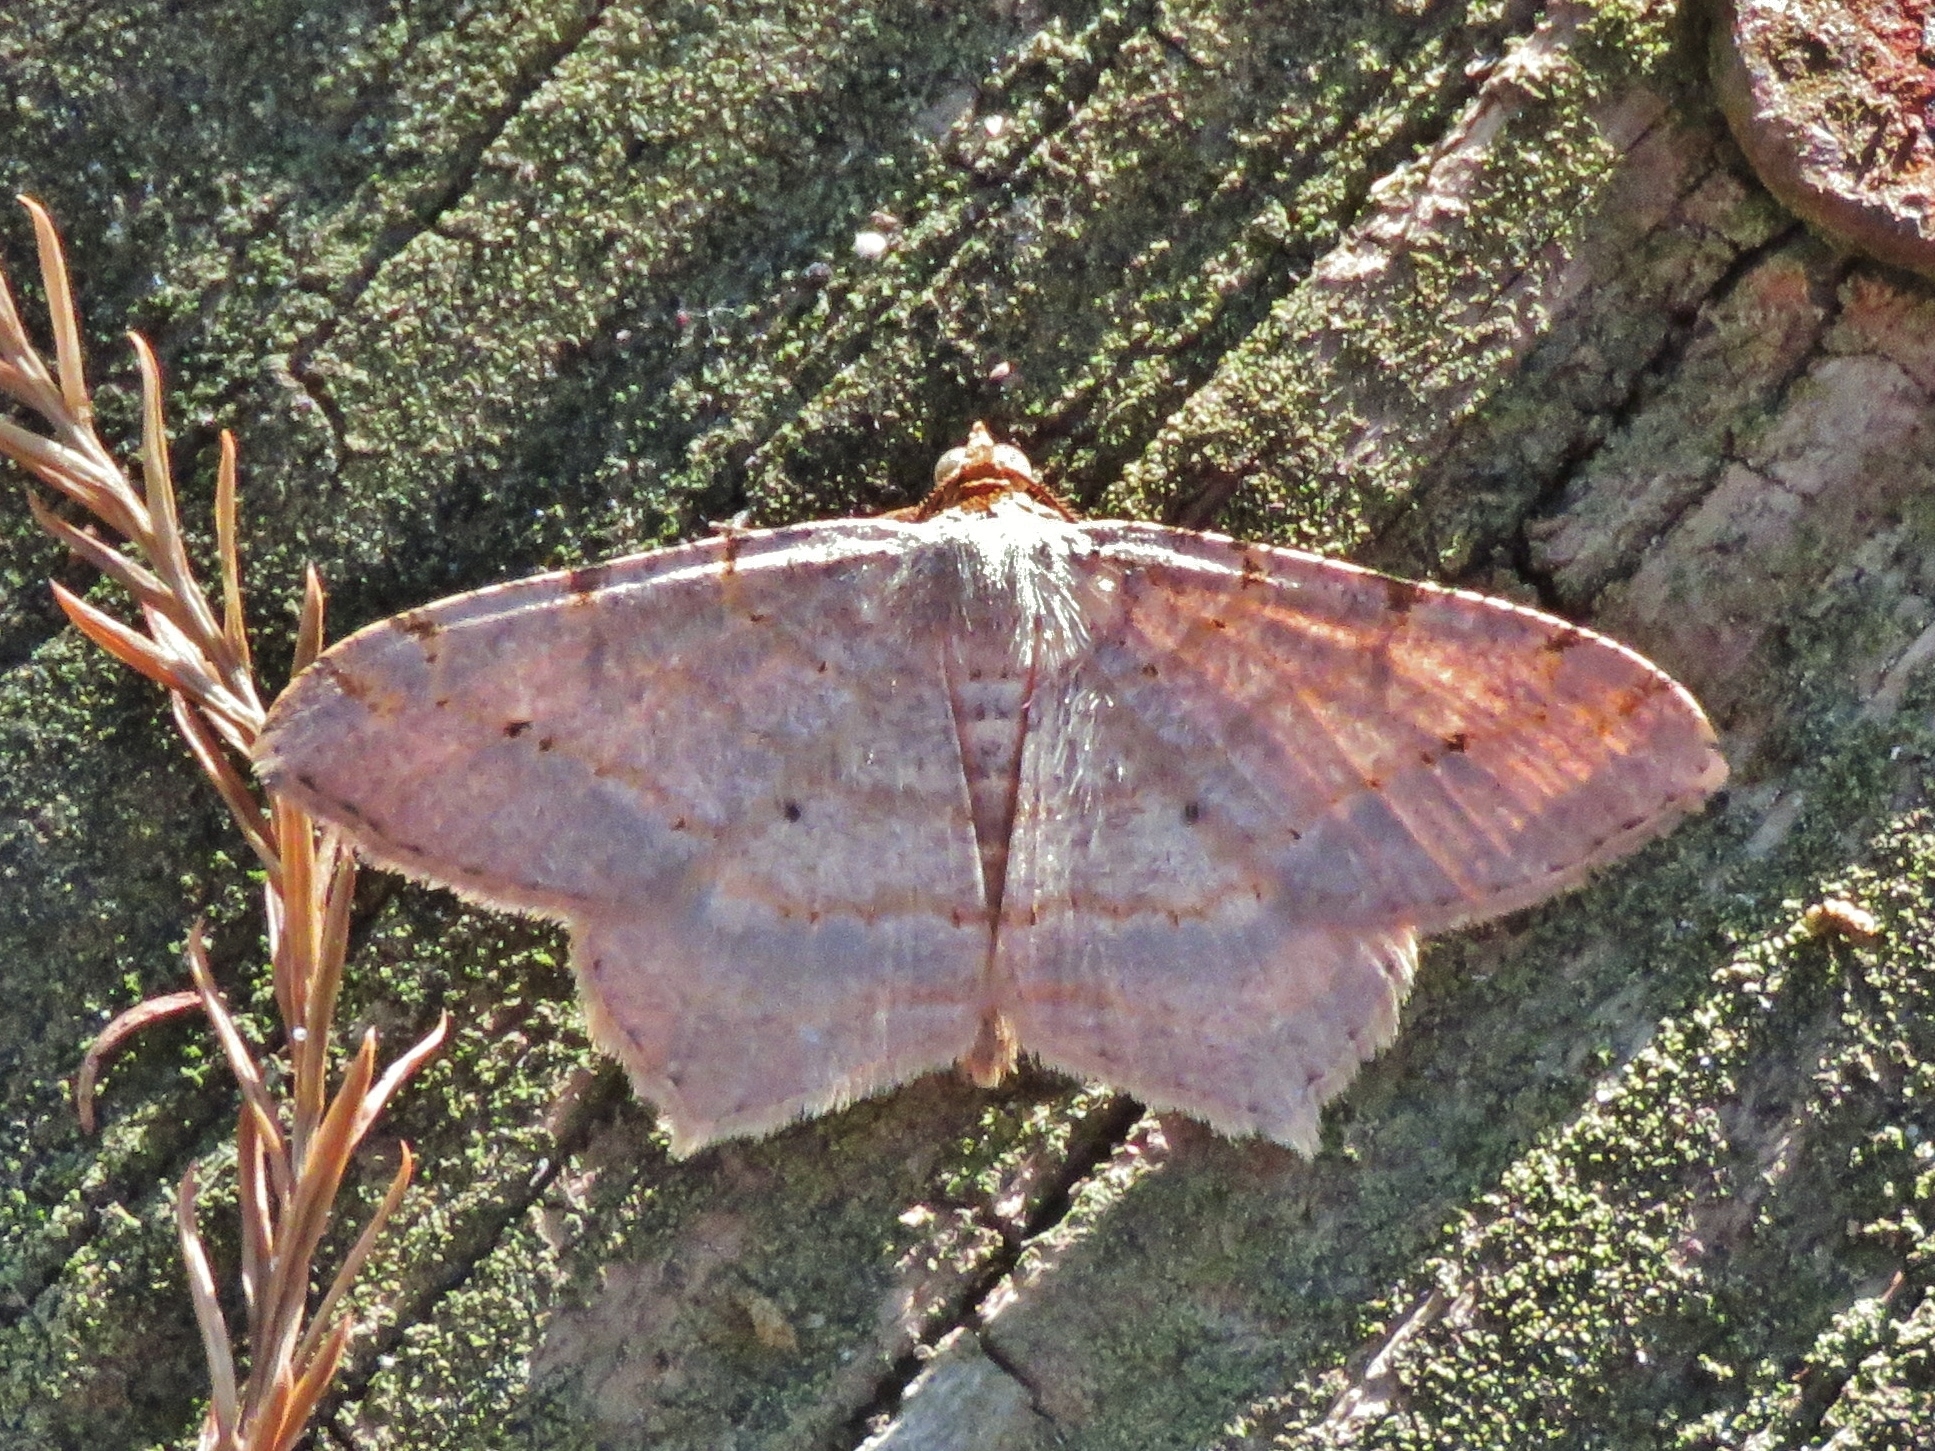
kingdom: Animalia
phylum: Arthropoda
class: Insecta
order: Lepidoptera
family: Geometridae
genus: Macaria
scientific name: Macaria abydata
